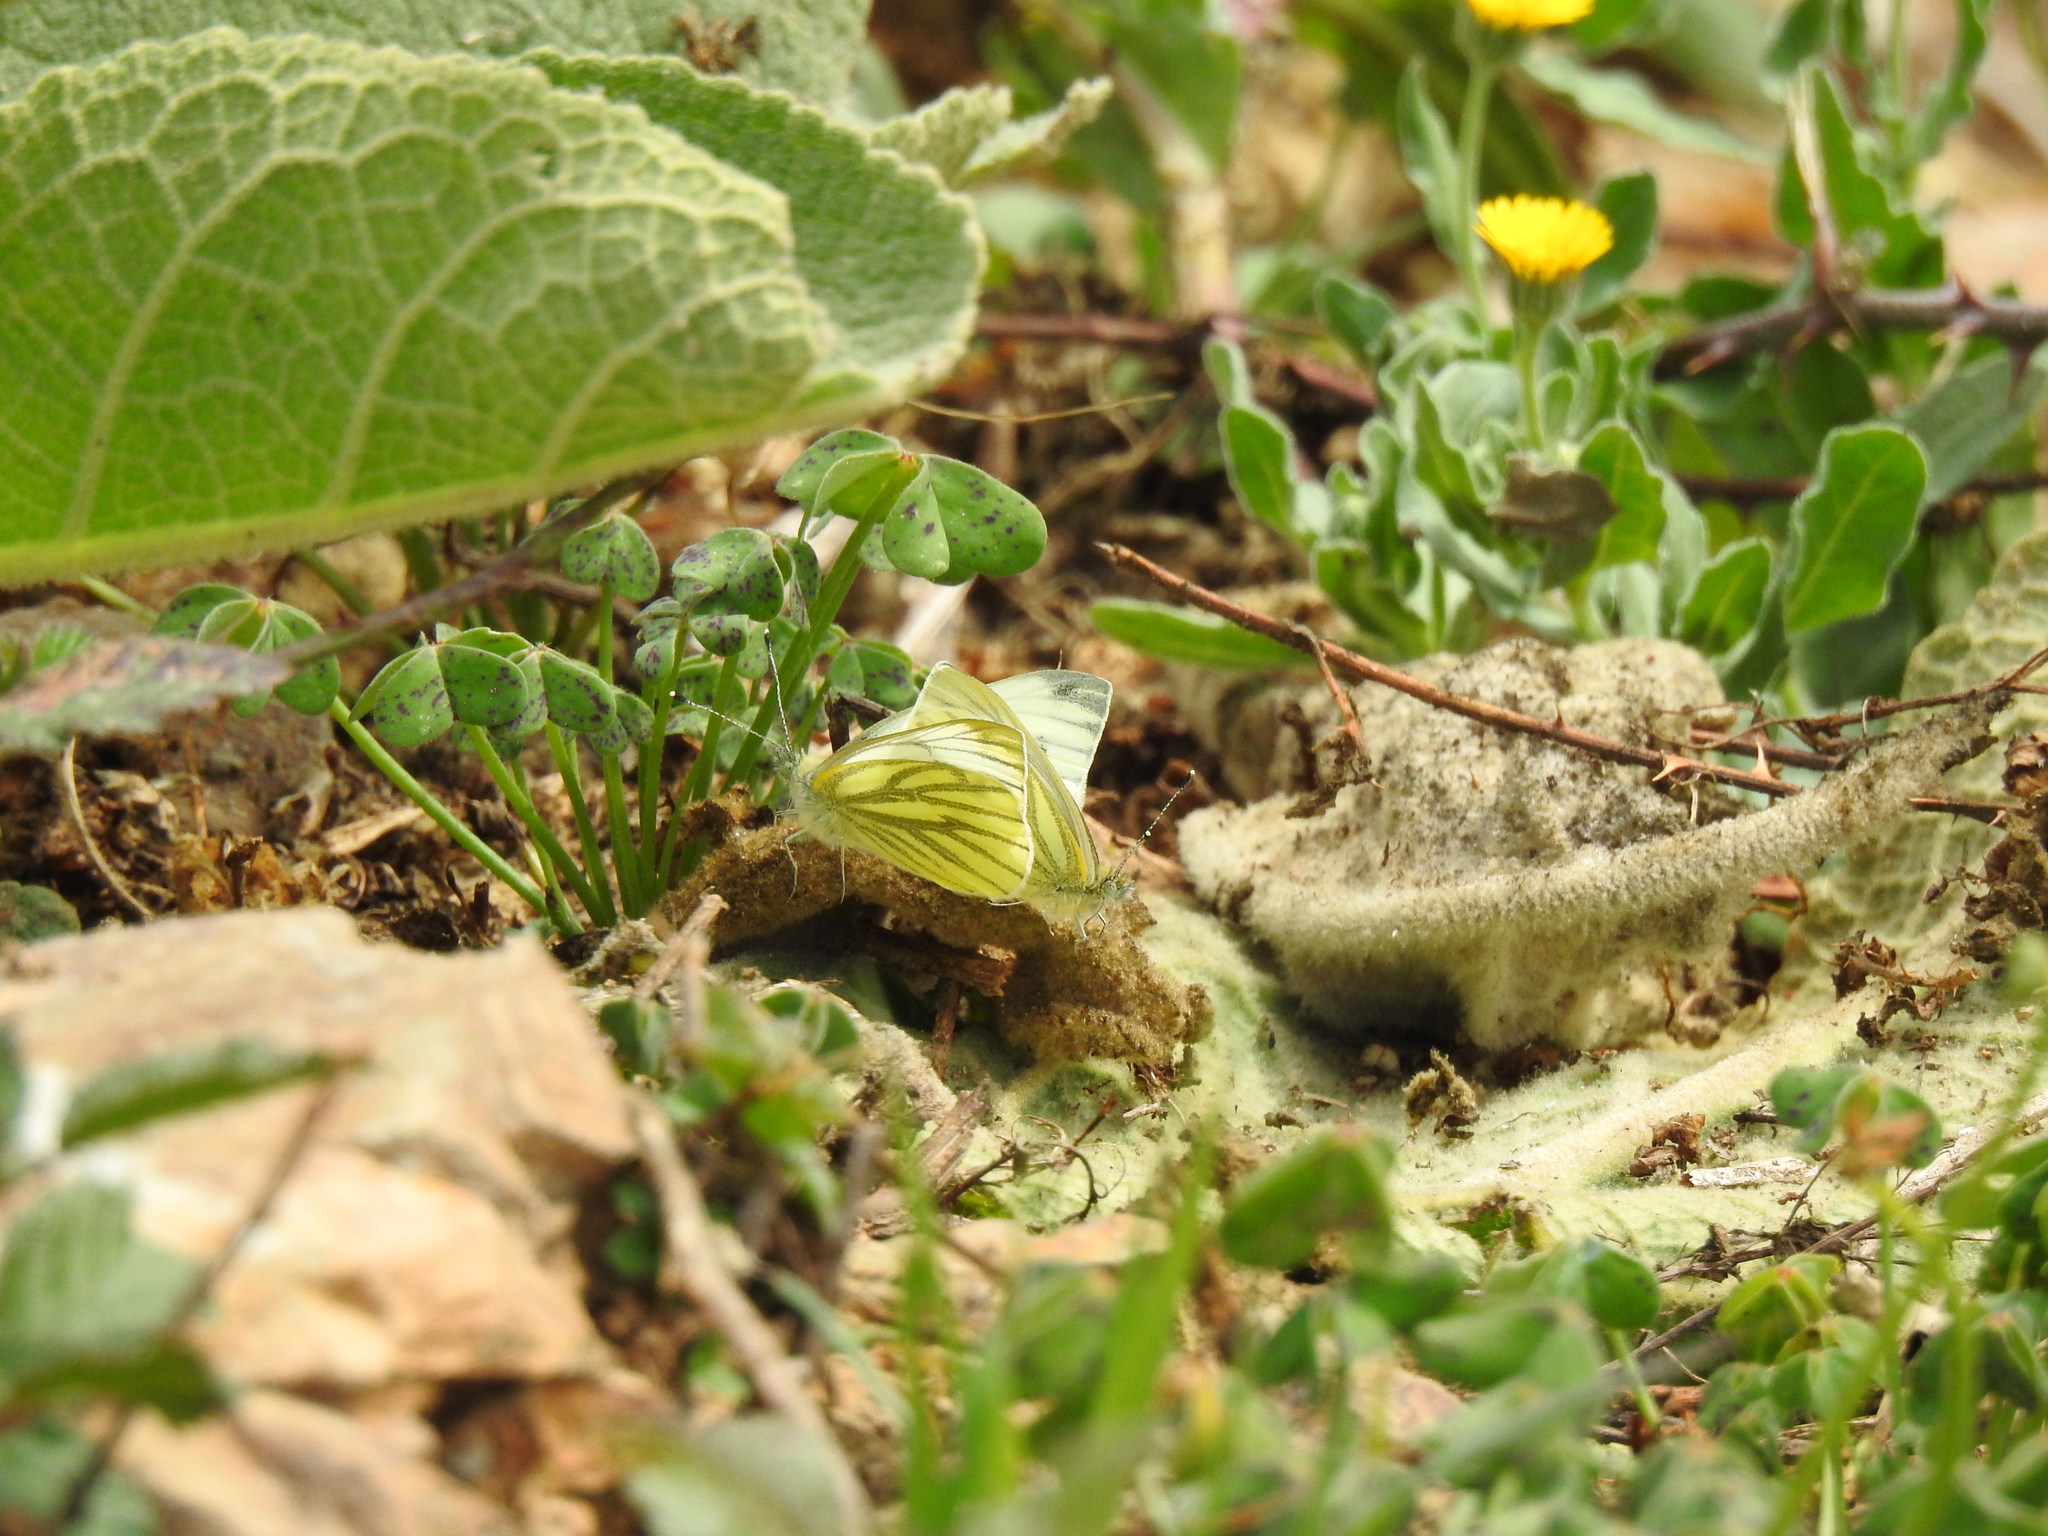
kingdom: Animalia
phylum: Arthropoda
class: Insecta
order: Lepidoptera
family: Pieridae
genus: Pieris
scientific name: Pieris napi
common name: Green-veined white
